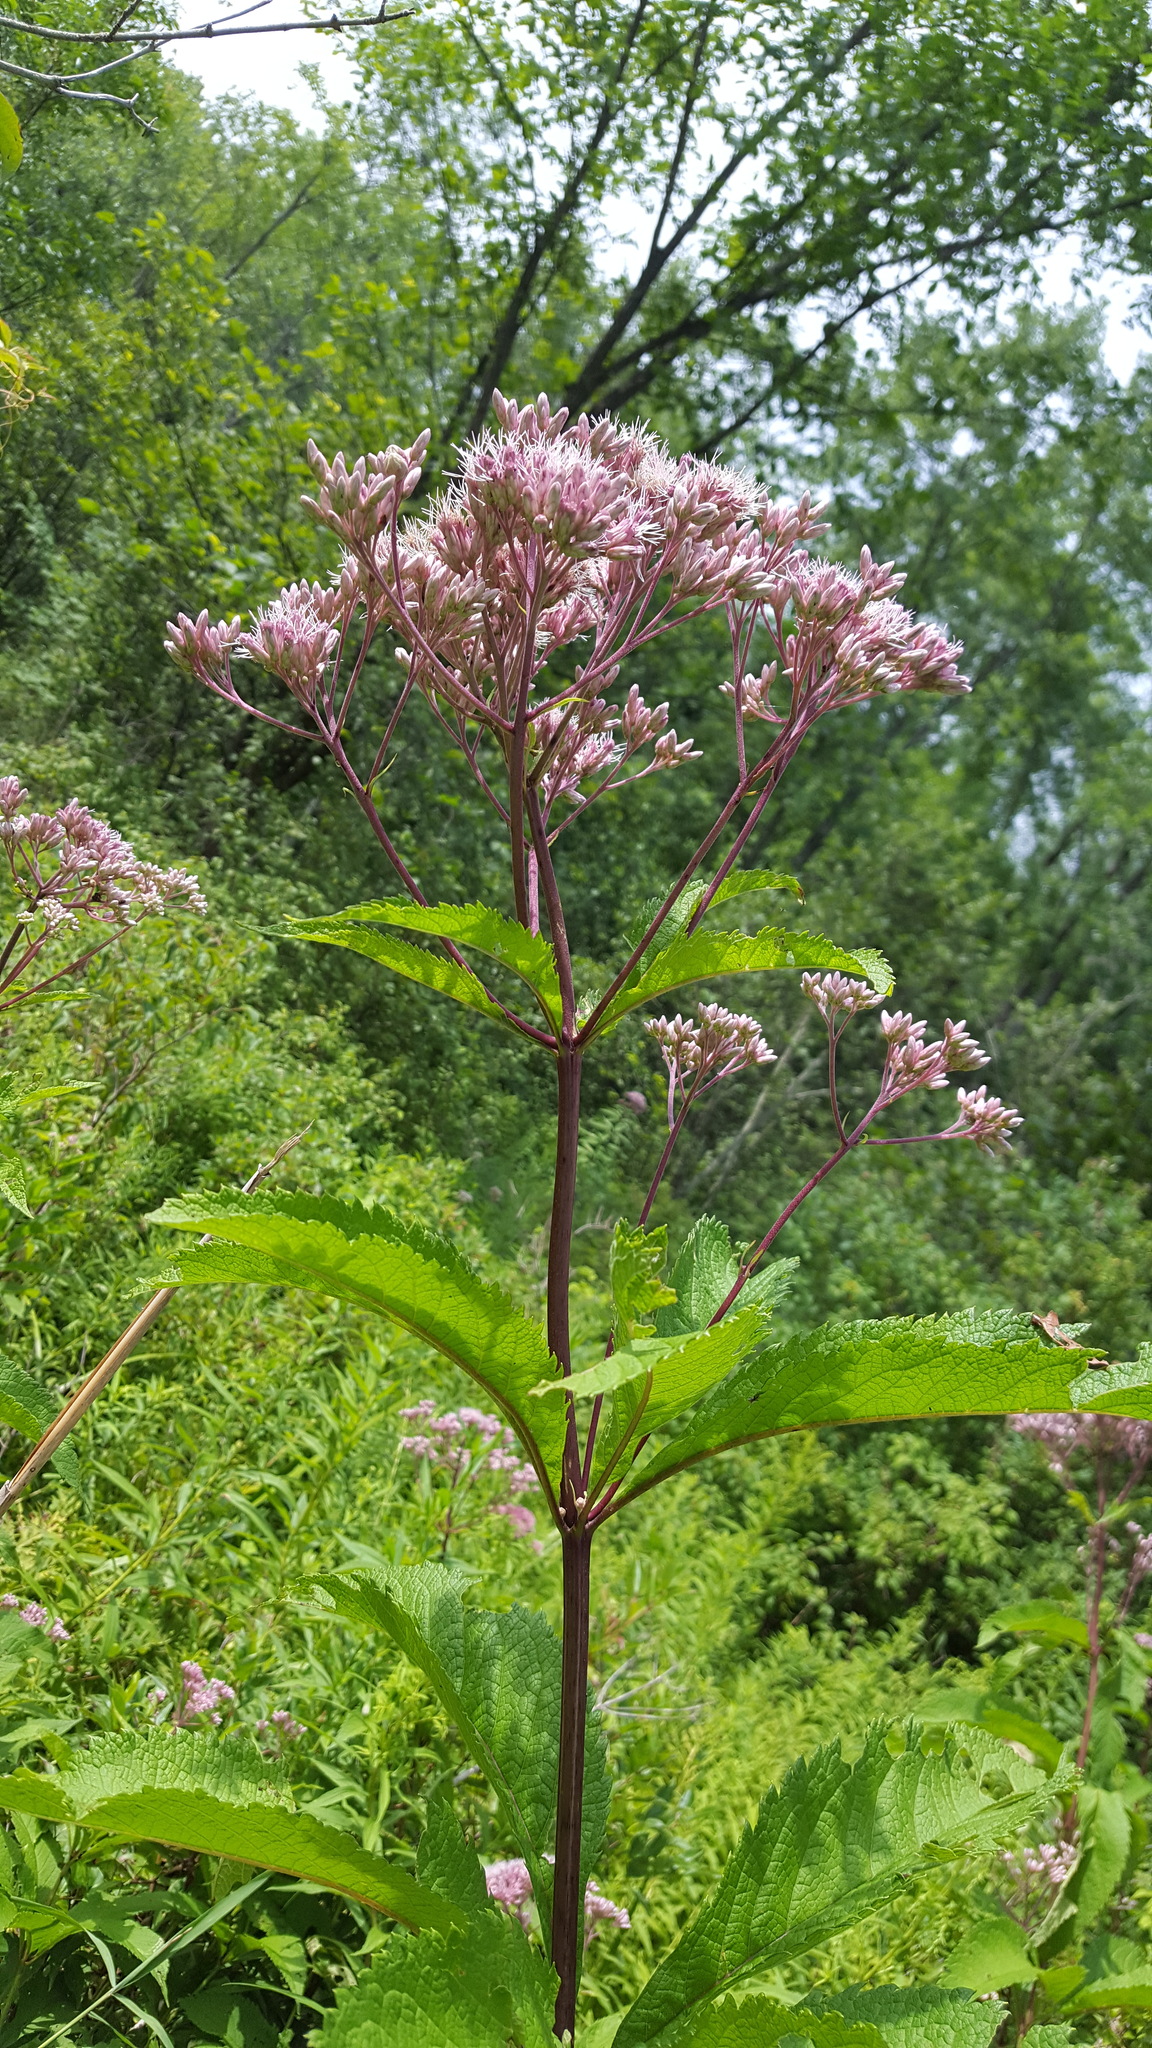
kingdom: Plantae
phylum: Tracheophyta
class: Magnoliopsida
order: Asterales
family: Asteraceae
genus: Eutrochium
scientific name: Eutrochium maculatum
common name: Spotted joe pye weed
